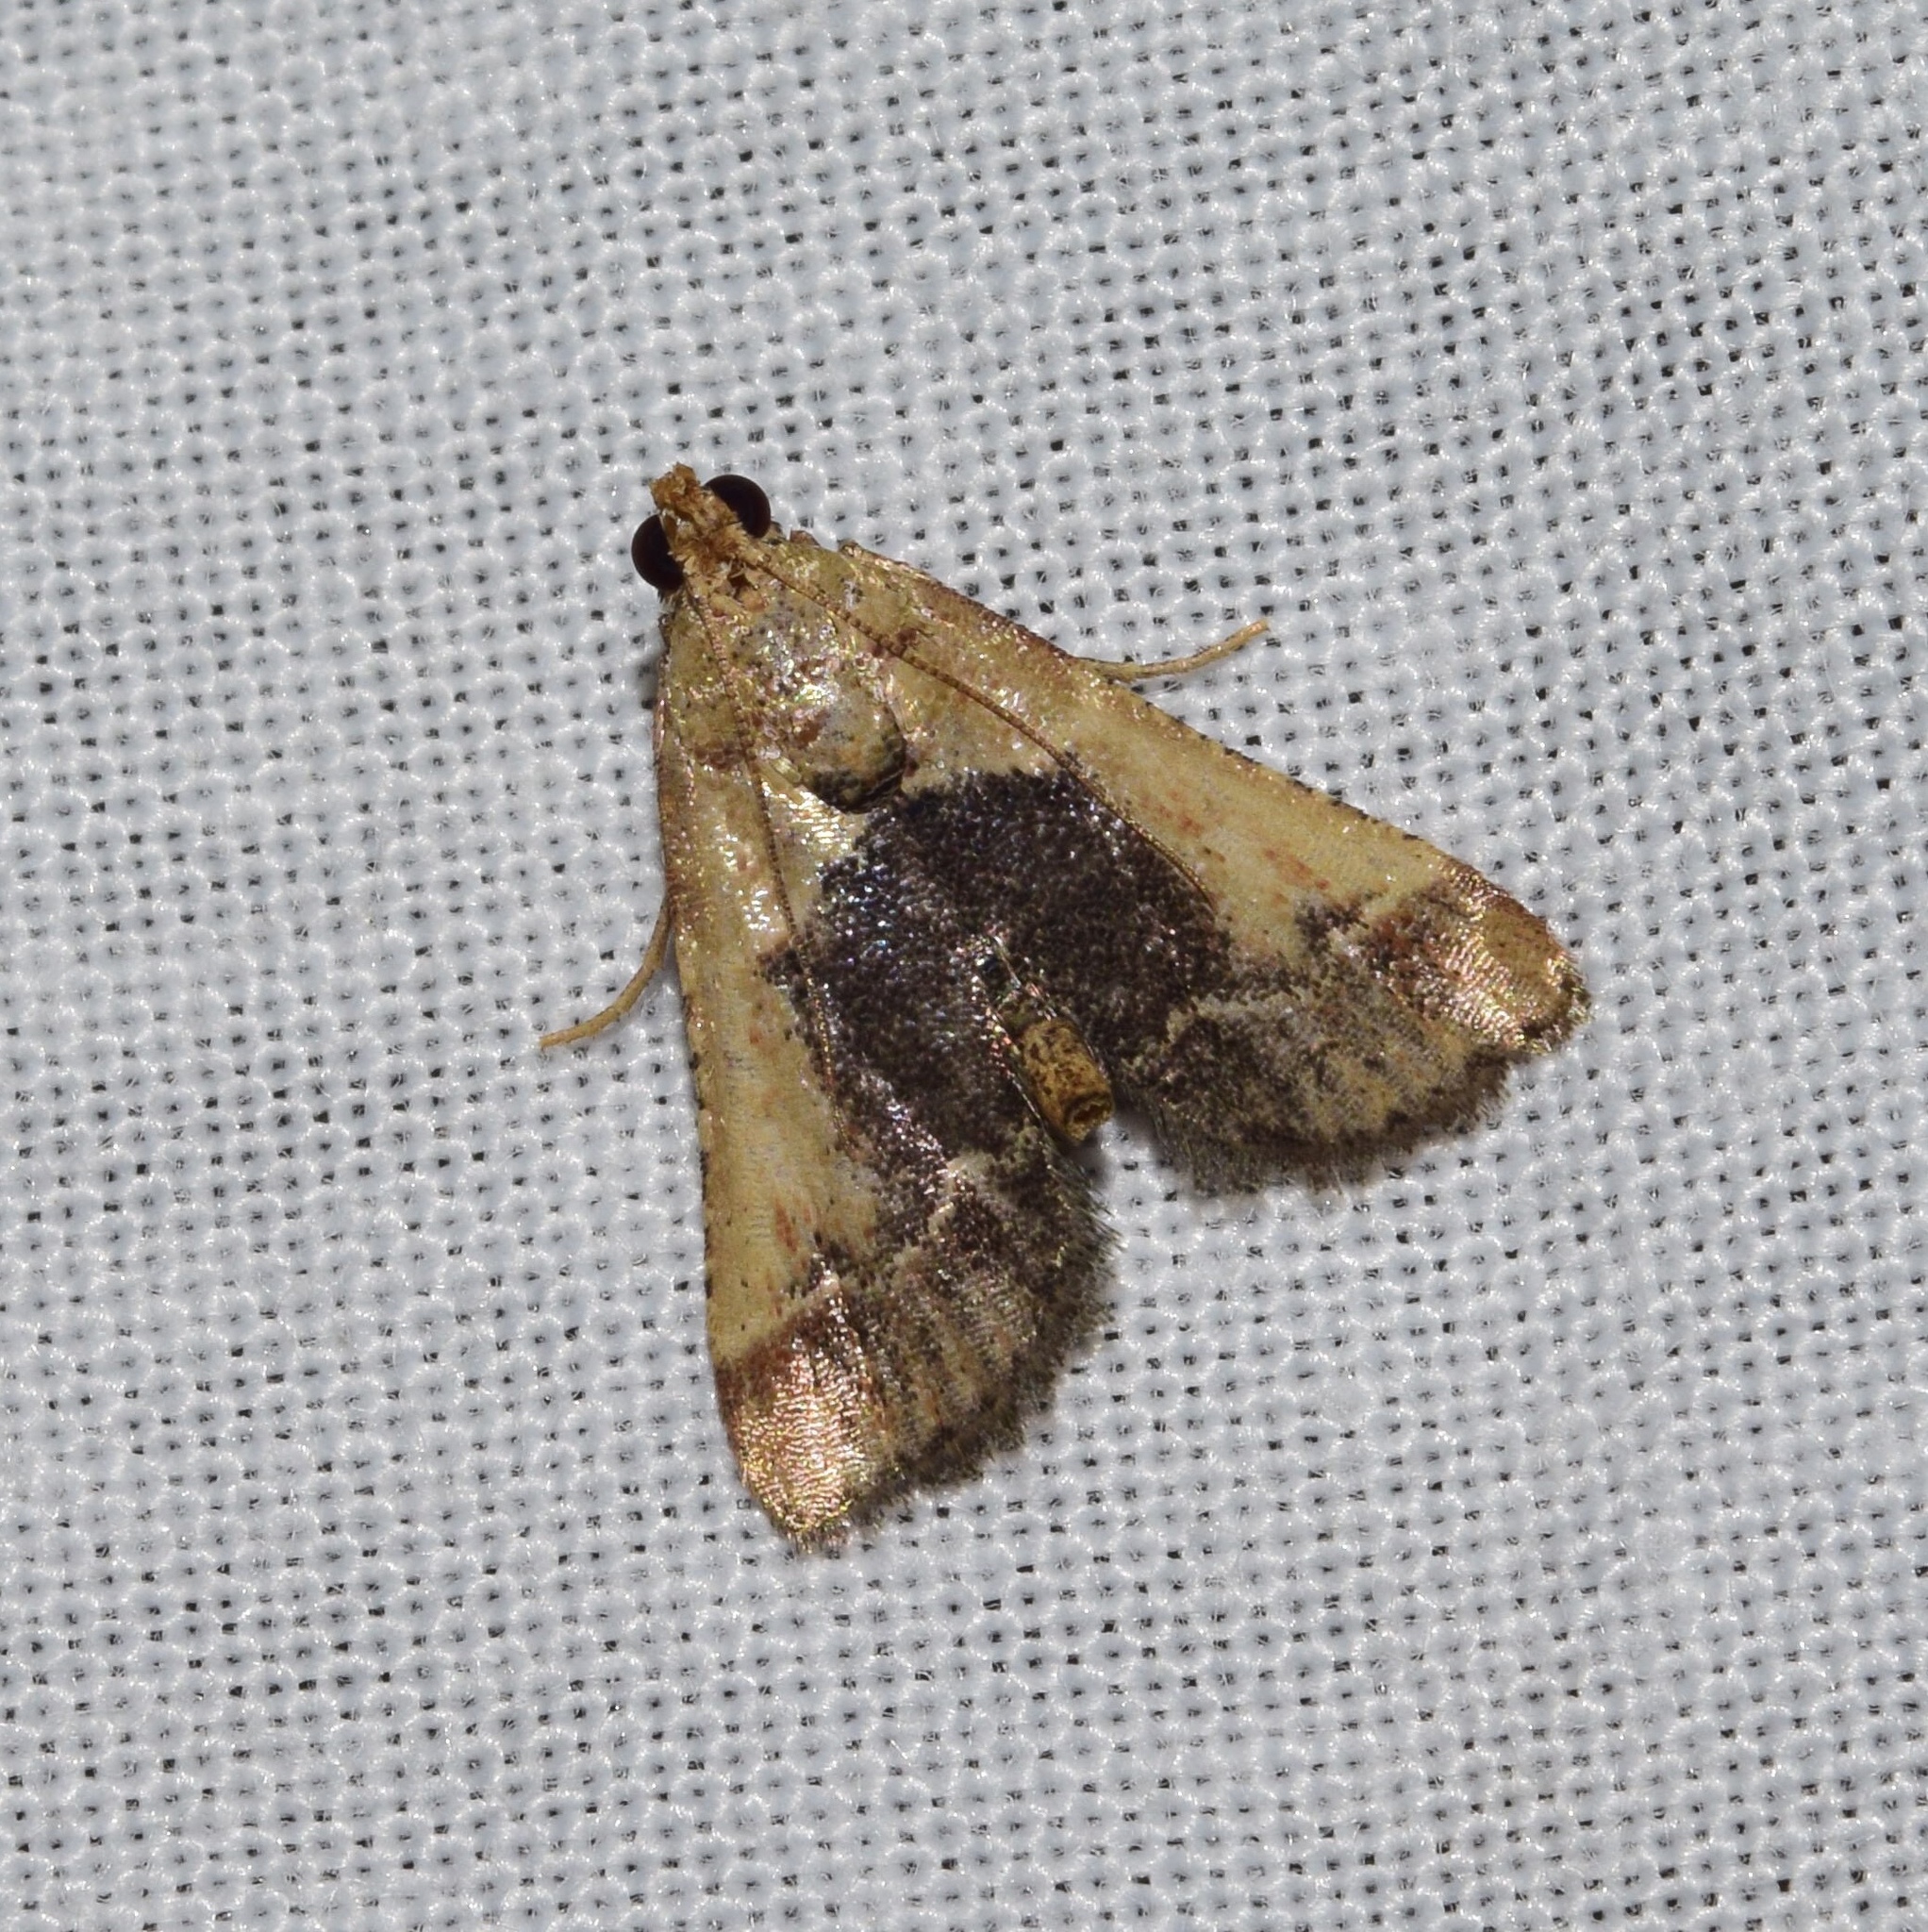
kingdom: Animalia
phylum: Arthropoda
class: Insecta
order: Lepidoptera
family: Pyralidae
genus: Tegulifera
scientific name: Tegulifera tristiculalis
